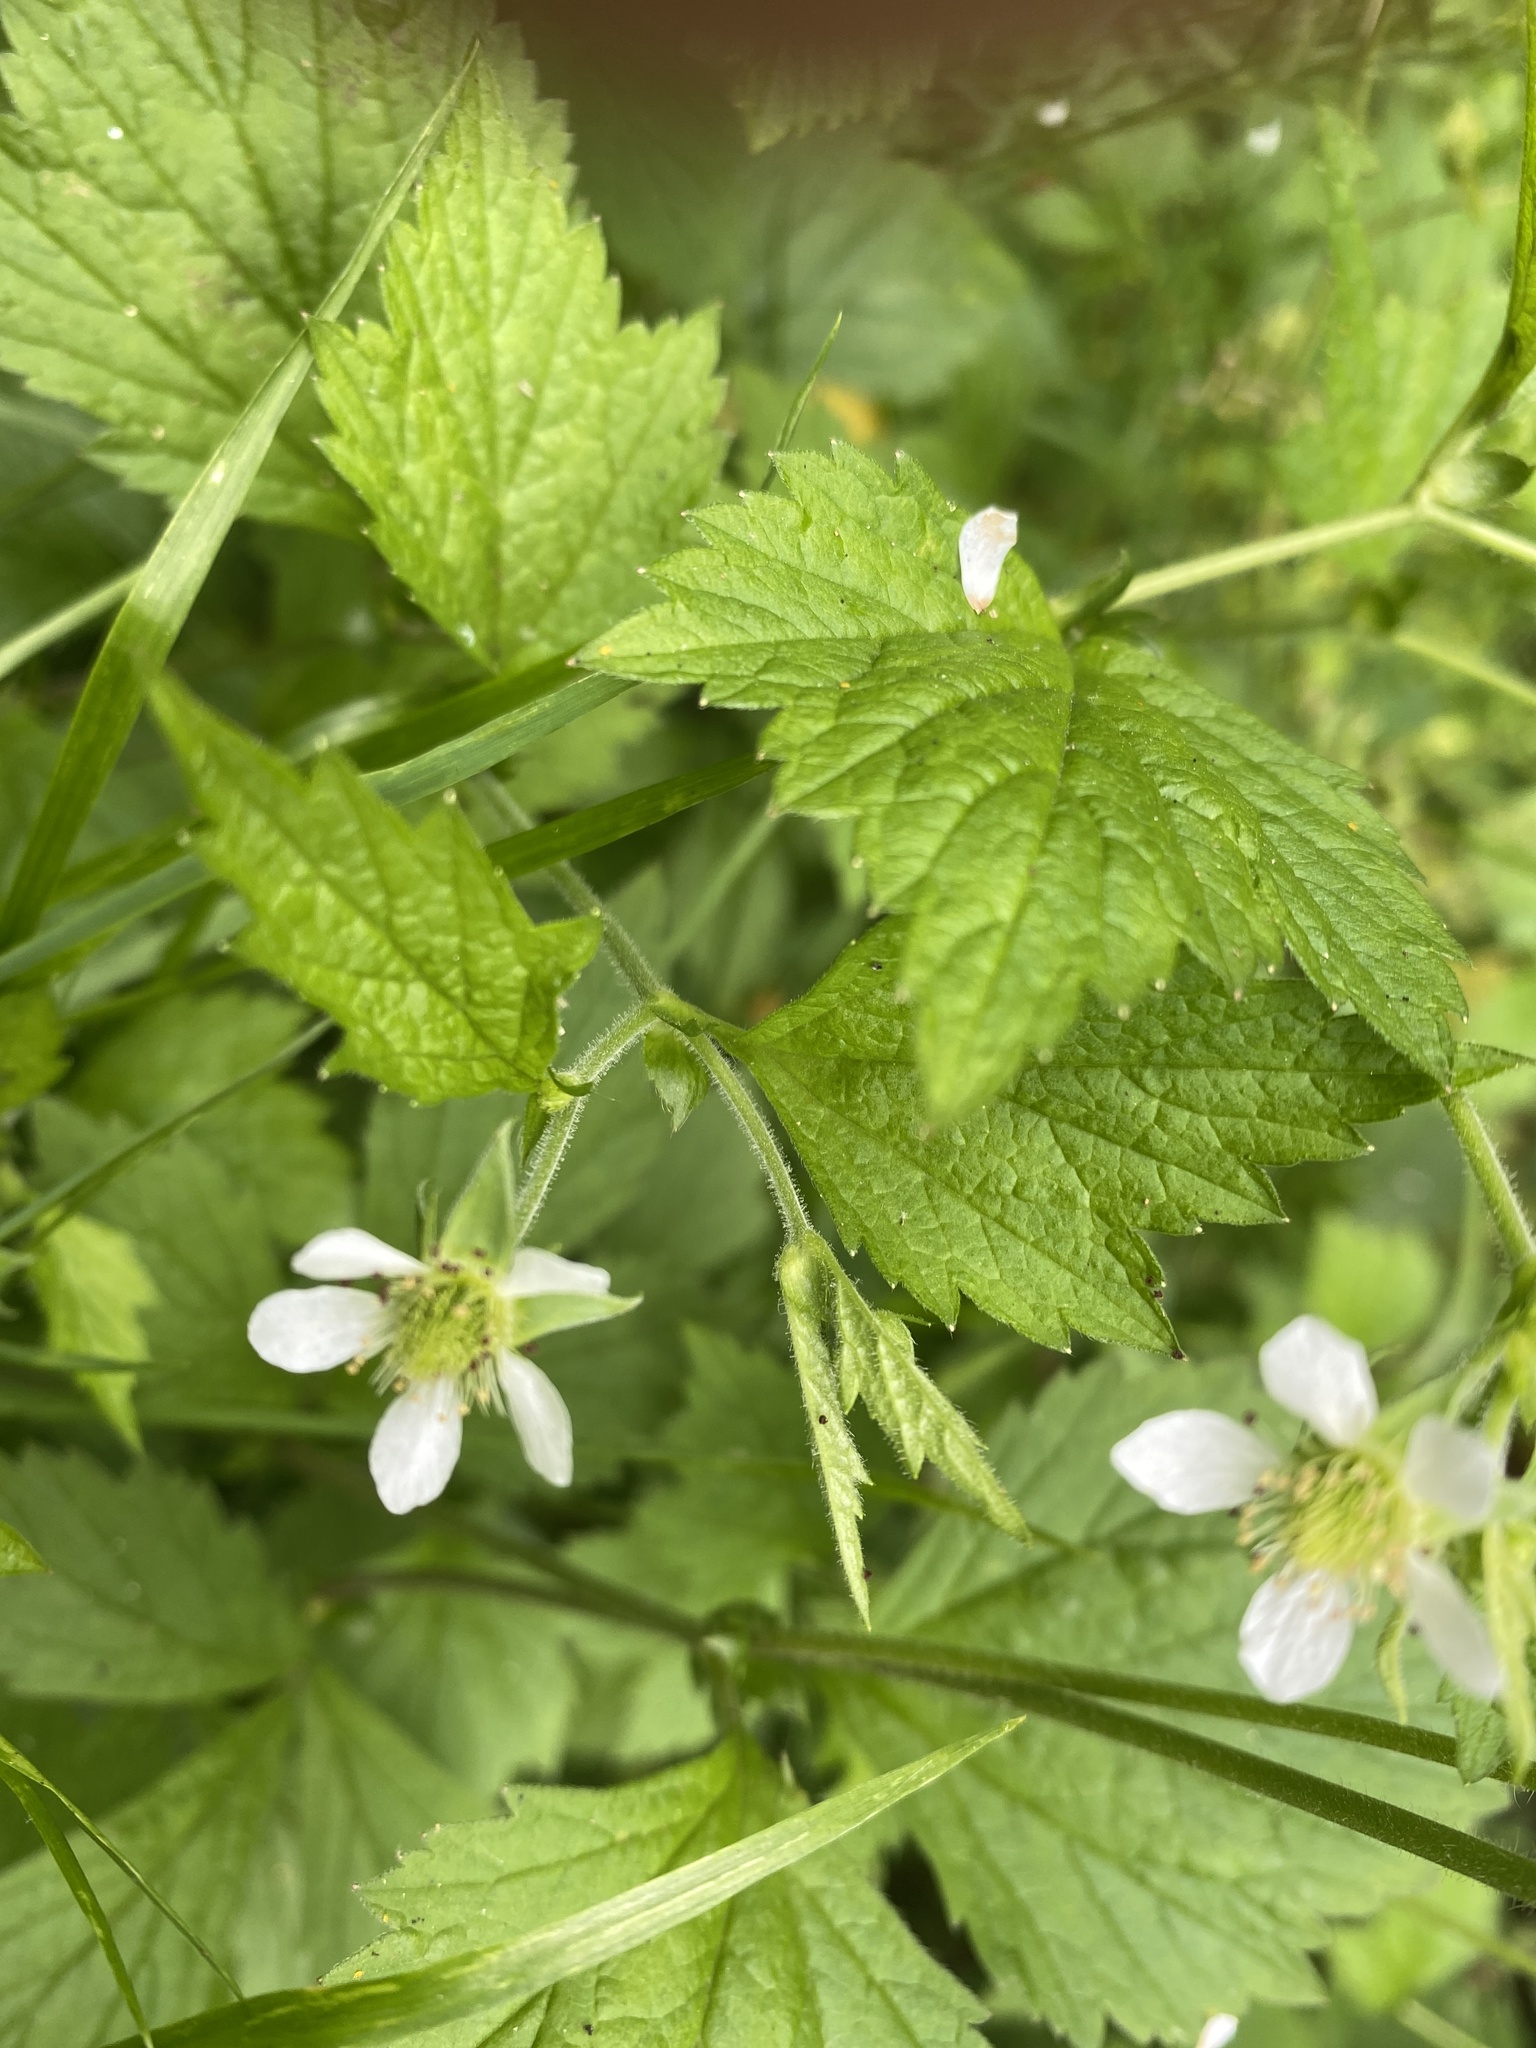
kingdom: Plantae
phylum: Tracheophyta
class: Magnoliopsida
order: Rosales
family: Rosaceae
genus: Geum
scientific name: Geum canadense
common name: White avens
